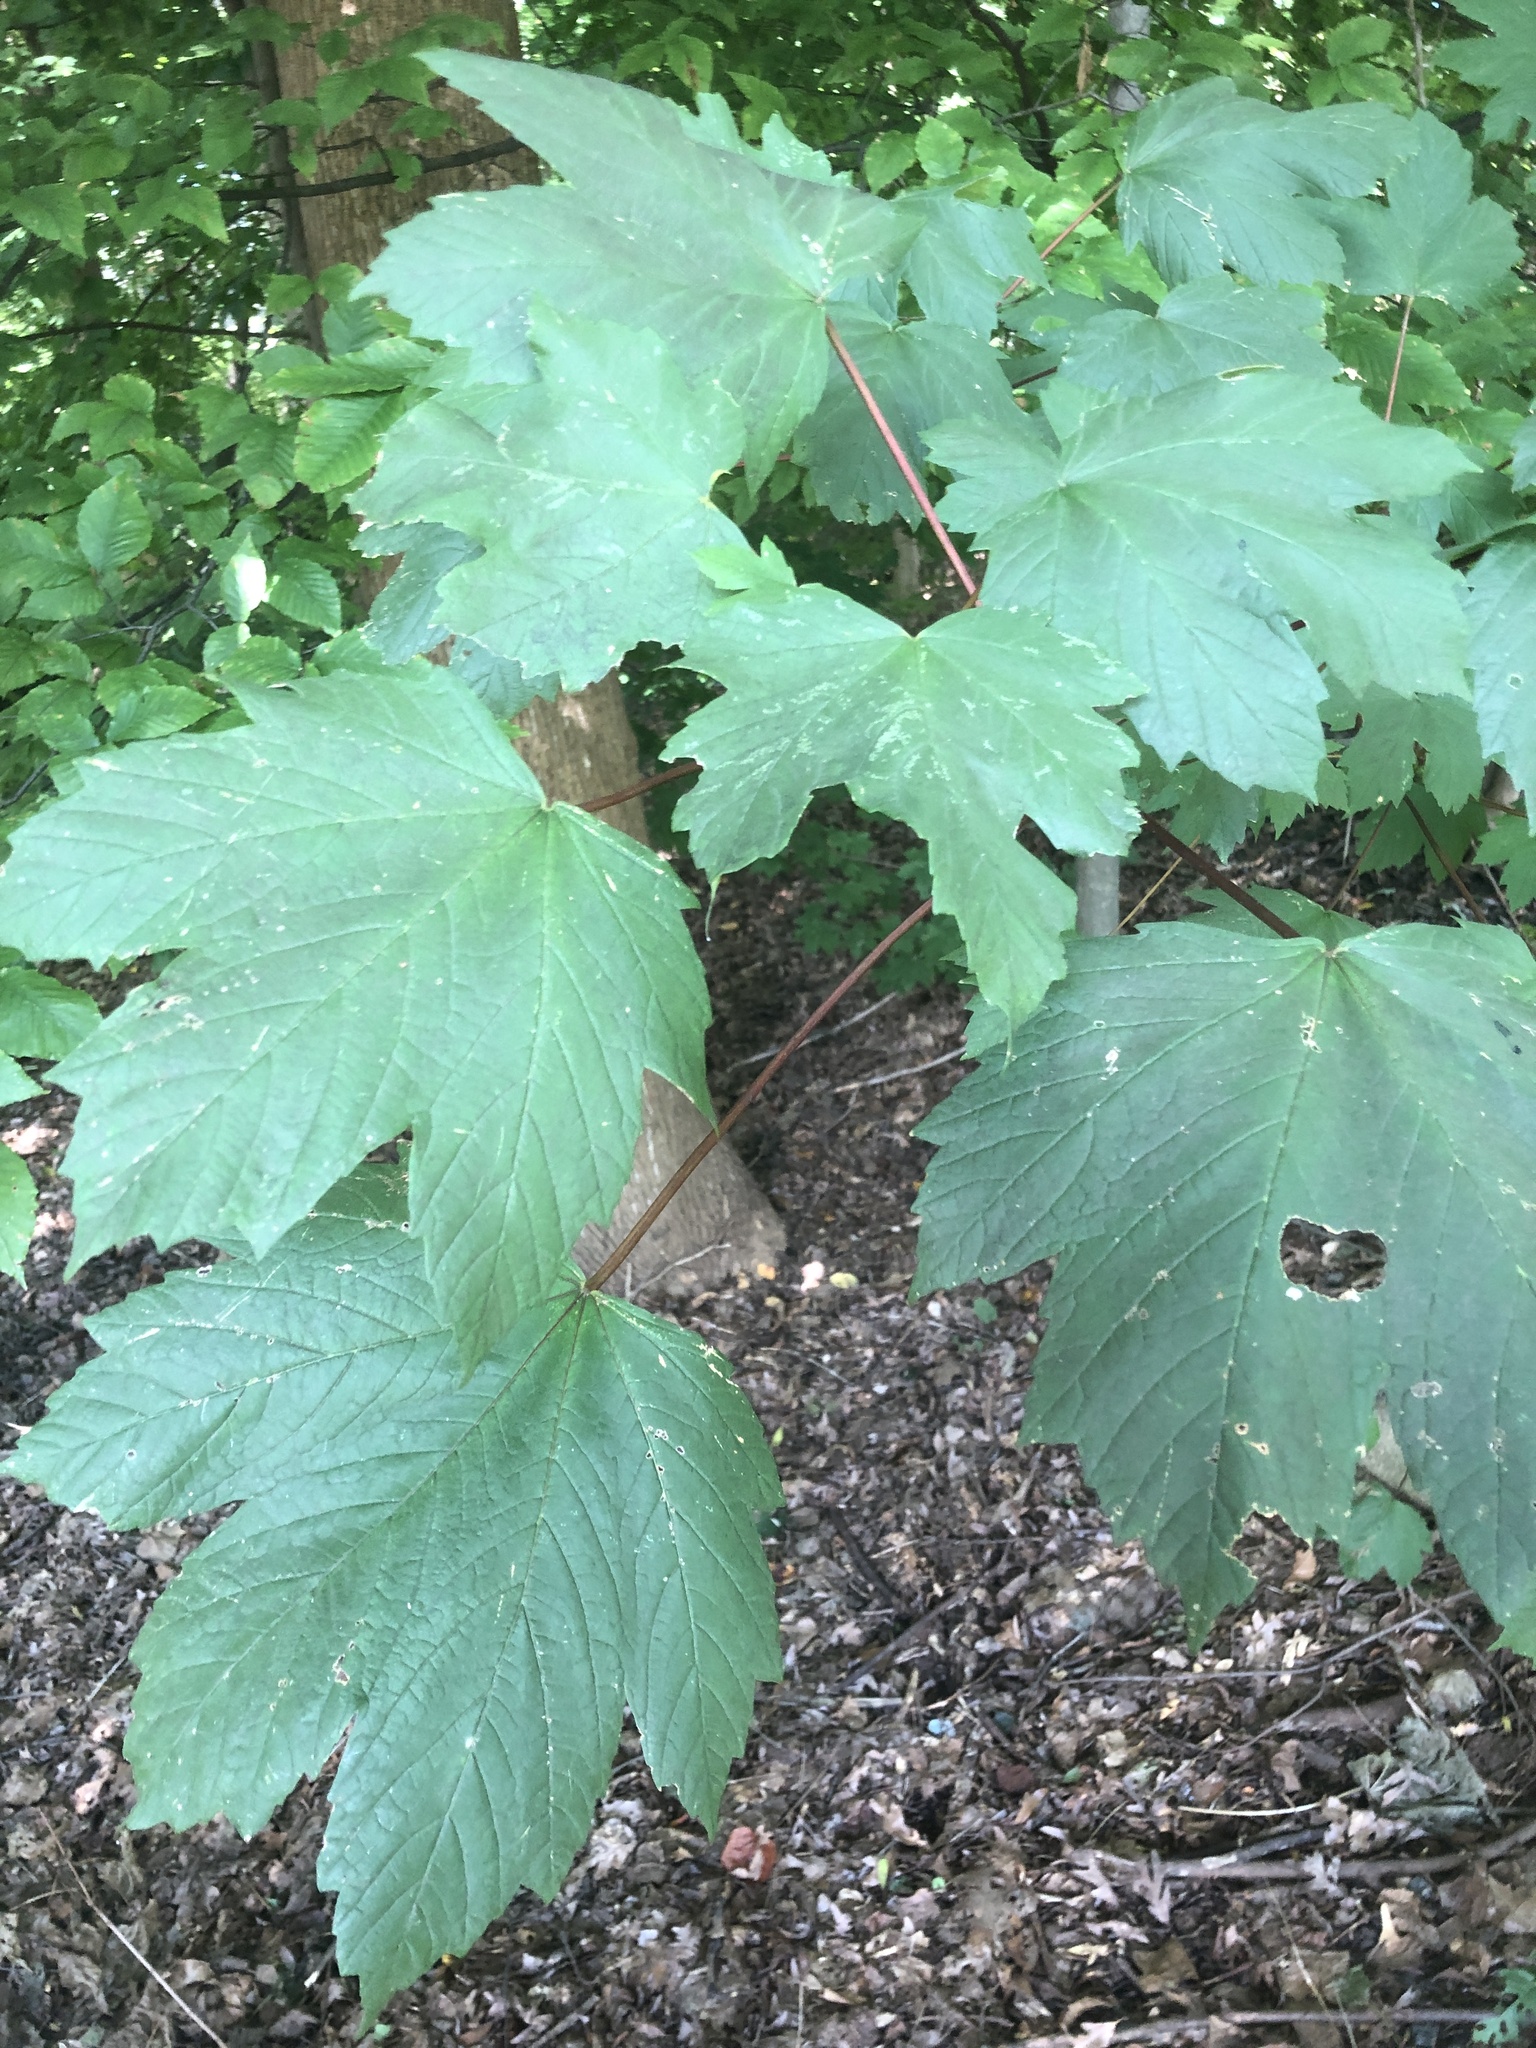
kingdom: Plantae
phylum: Tracheophyta
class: Magnoliopsida
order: Sapindales
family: Sapindaceae
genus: Acer
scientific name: Acer pseudoplatanus
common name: Sycamore
